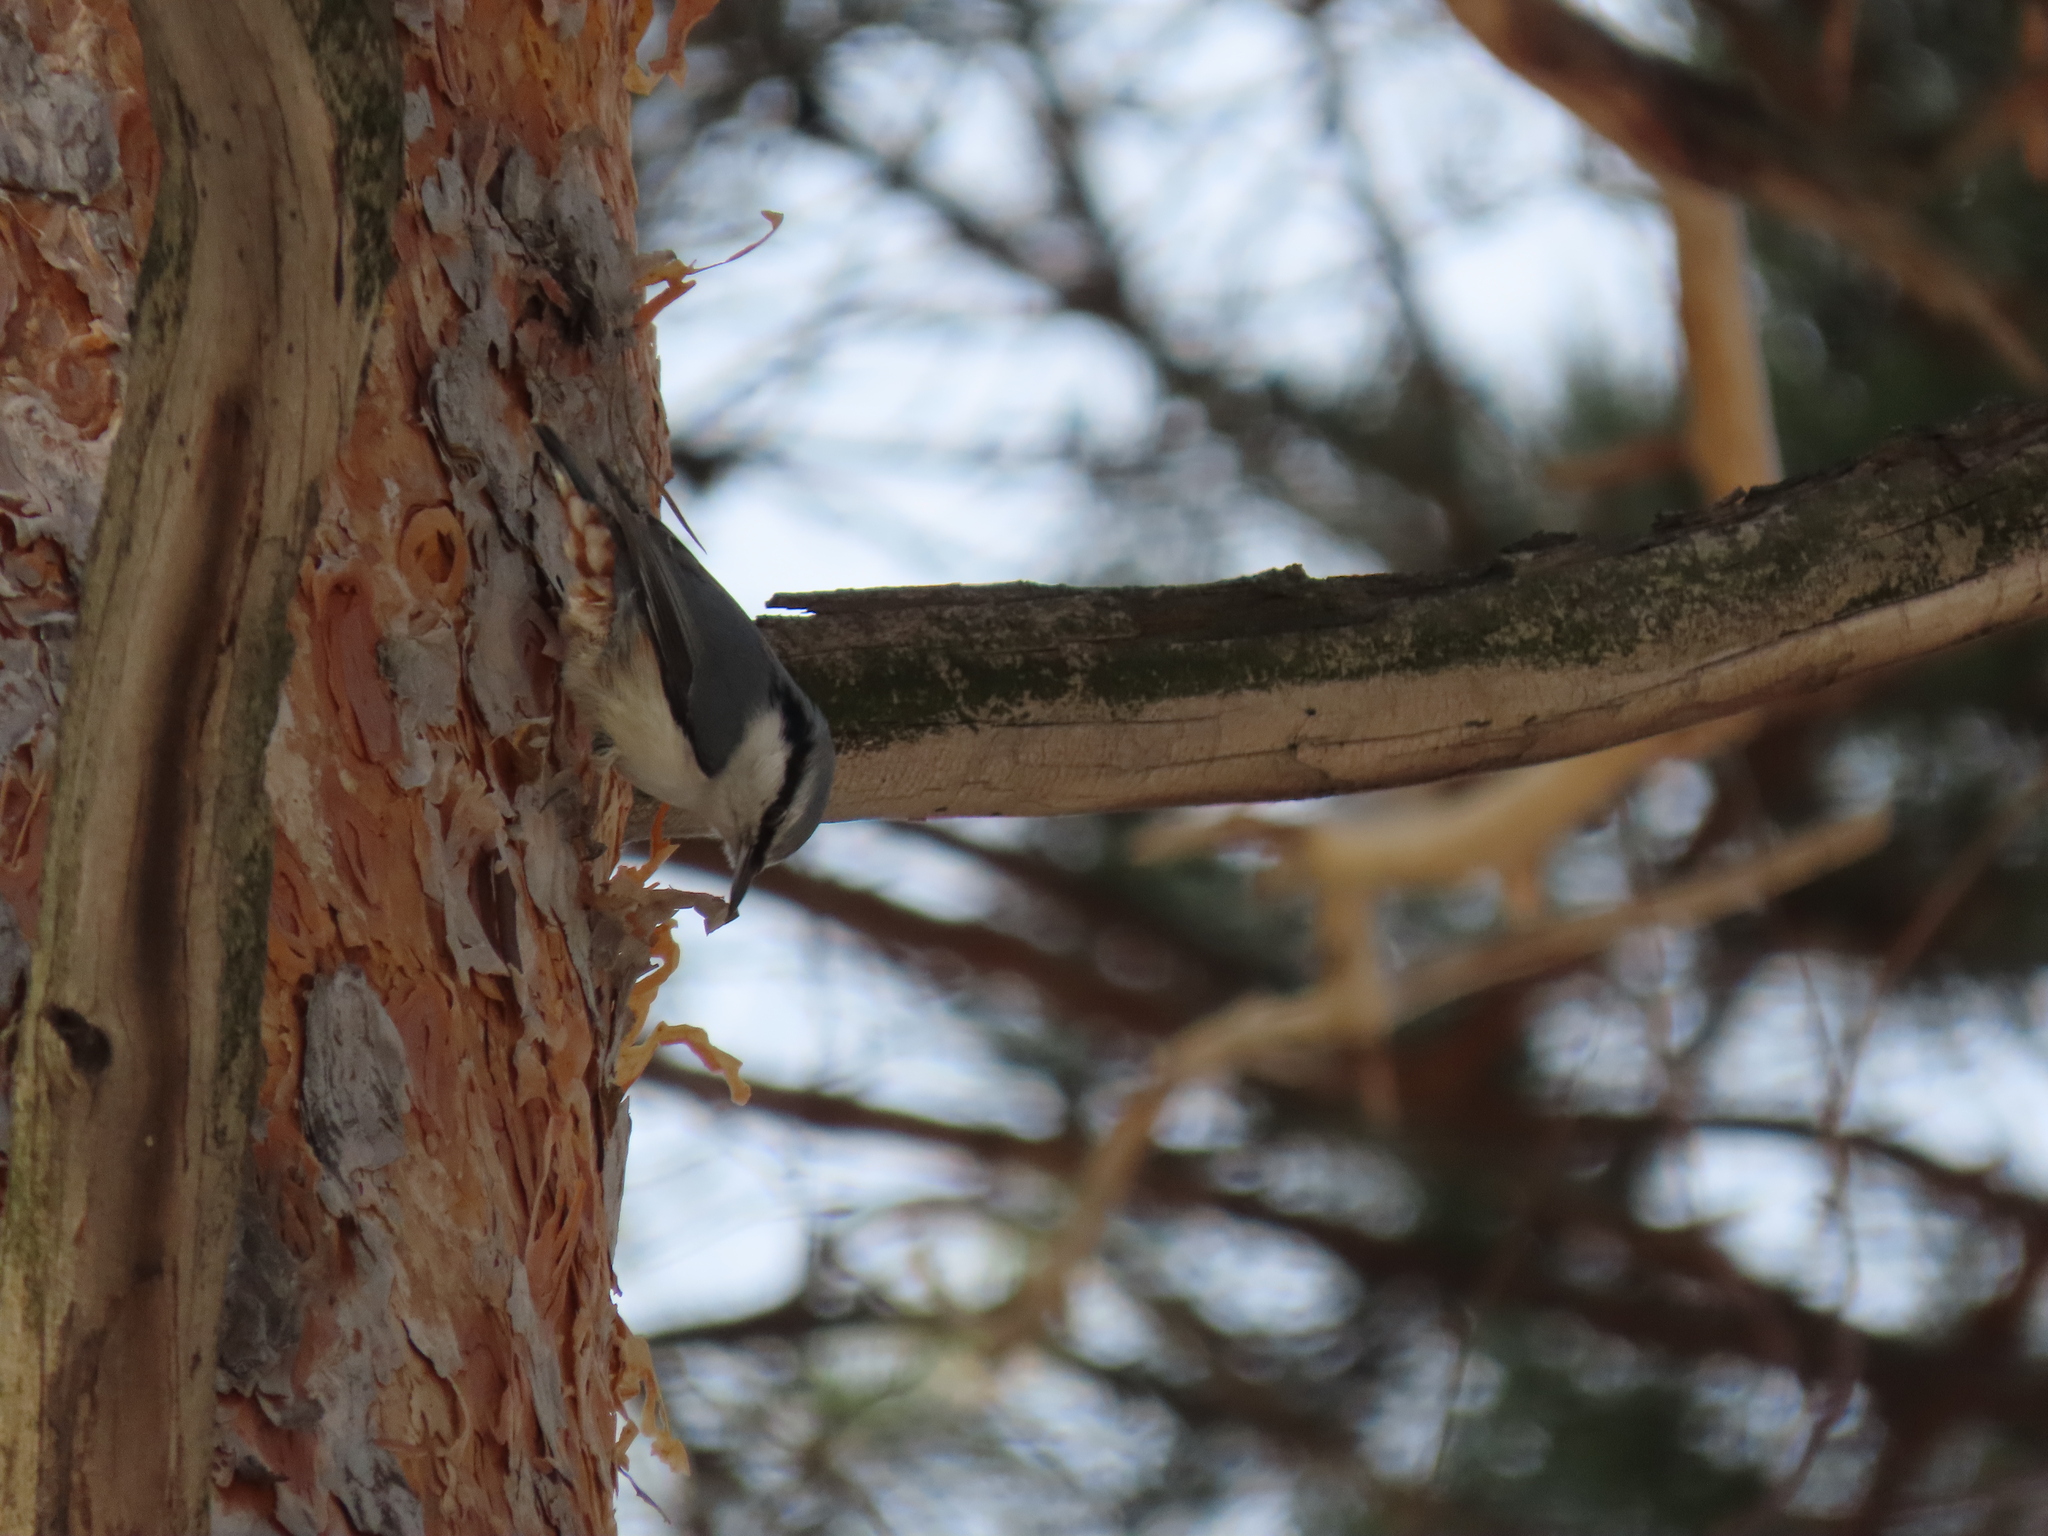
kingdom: Animalia
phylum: Chordata
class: Aves
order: Passeriformes
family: Sittidae
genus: Sitta
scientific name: Sitta europaea
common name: Eurasian nuthatch
